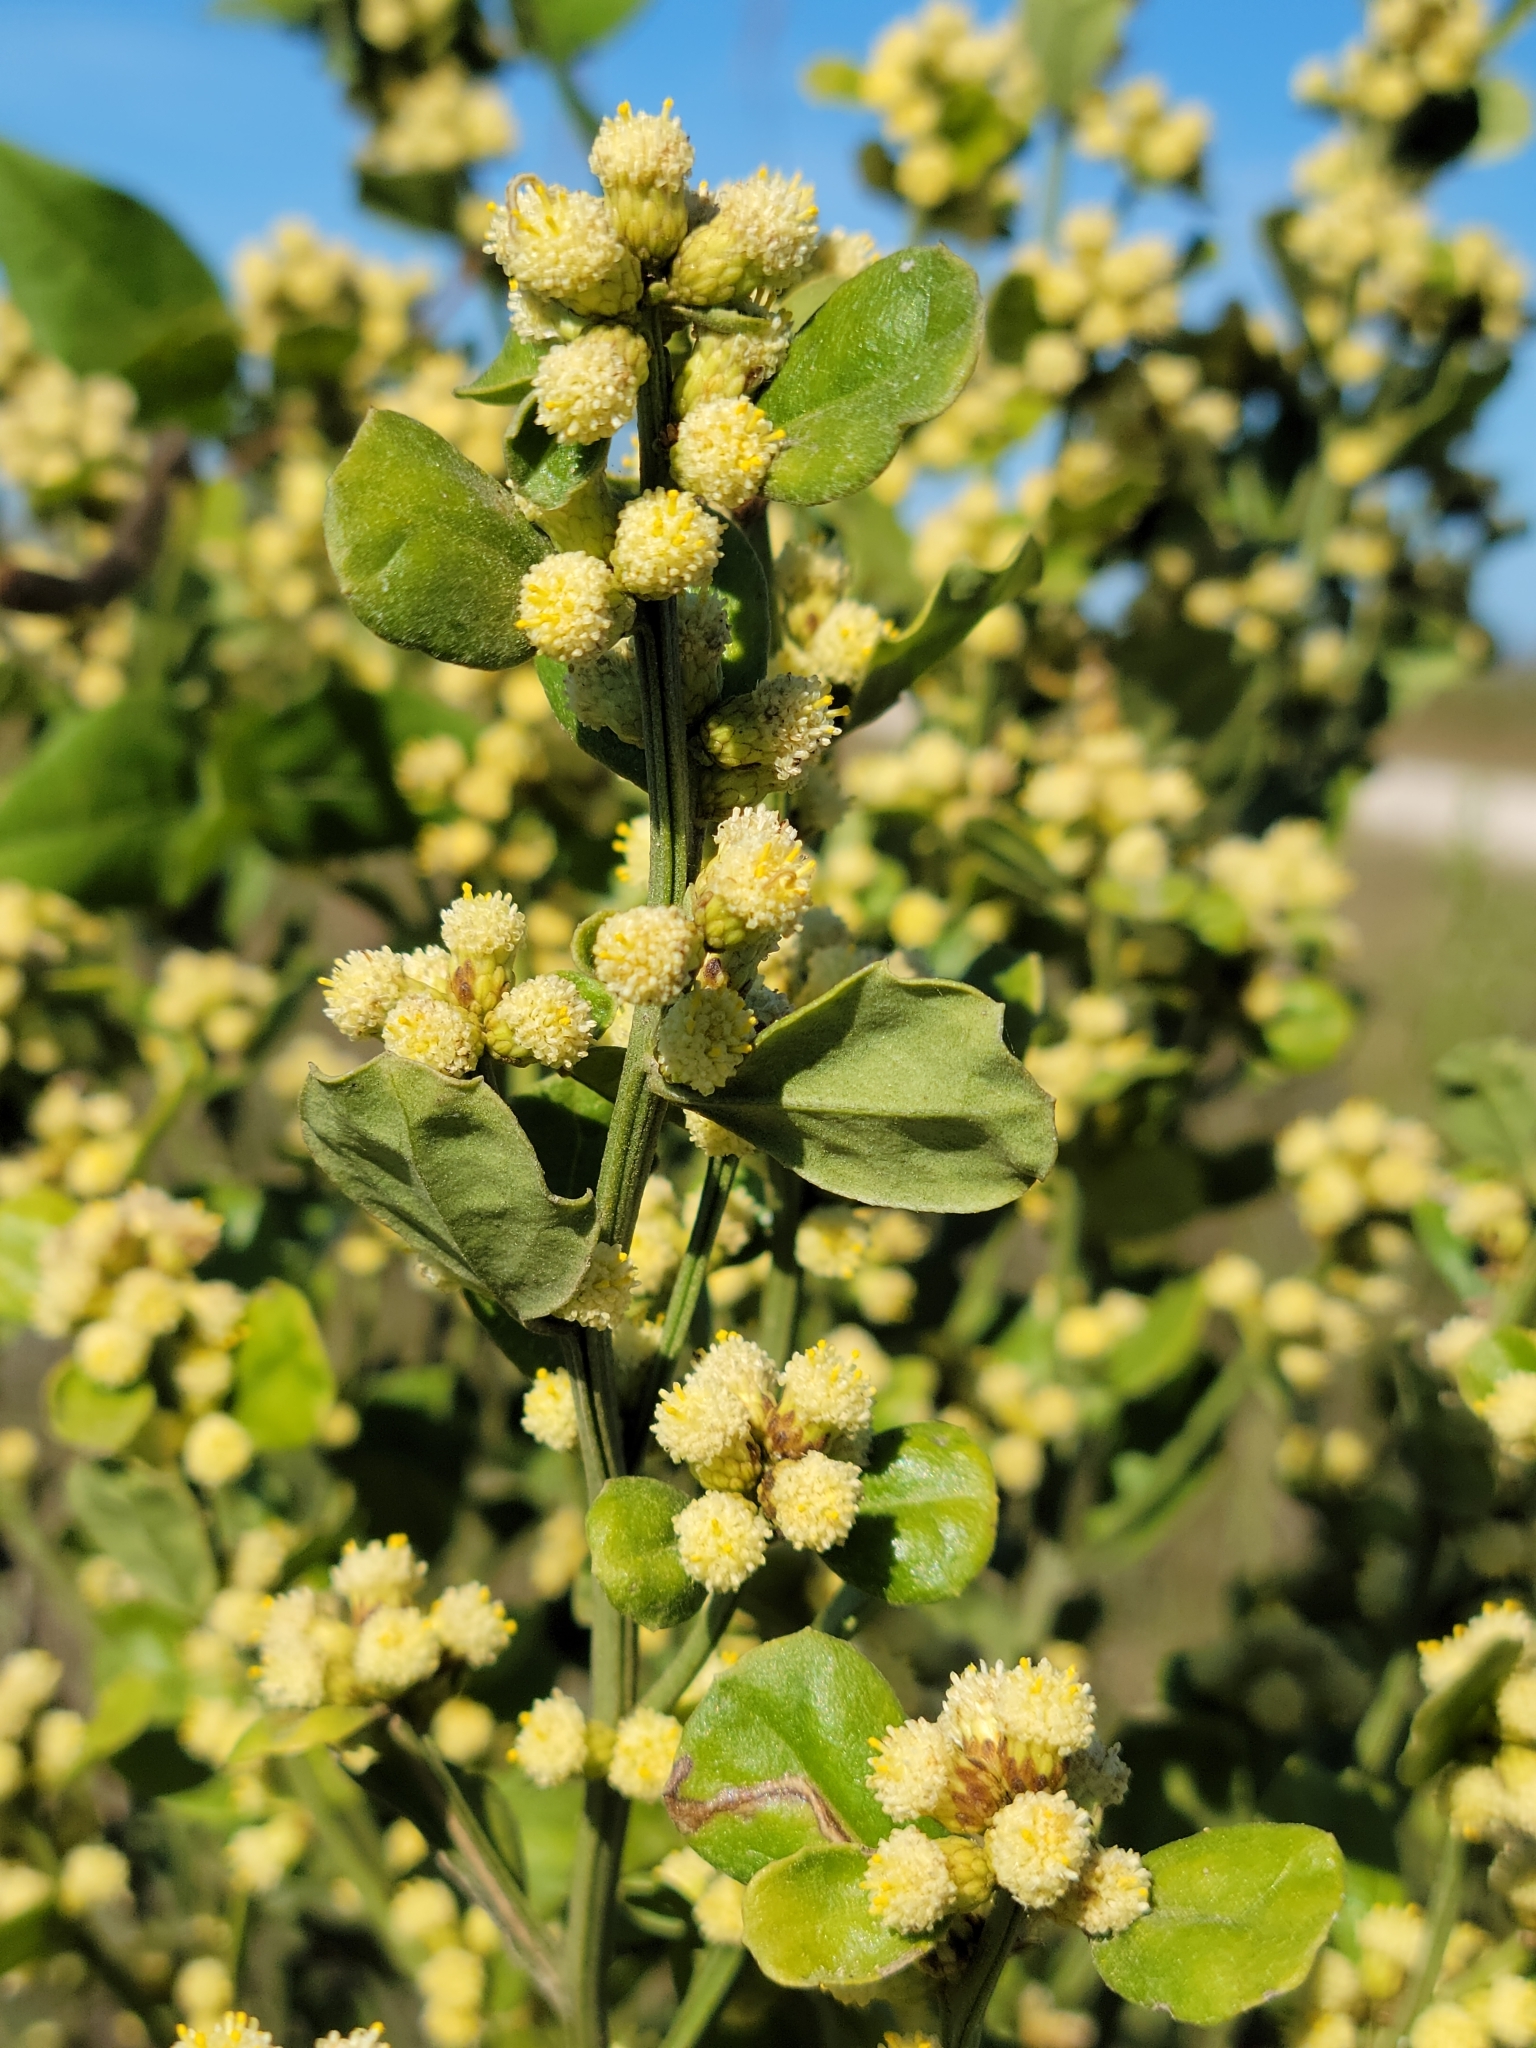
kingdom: Plantae
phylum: Tracheophyta
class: Magnoliopsida
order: Asterales
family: Asteraceae
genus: Baccharis
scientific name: Baccharis glomeruliflora
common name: Silverling groundsel bush
